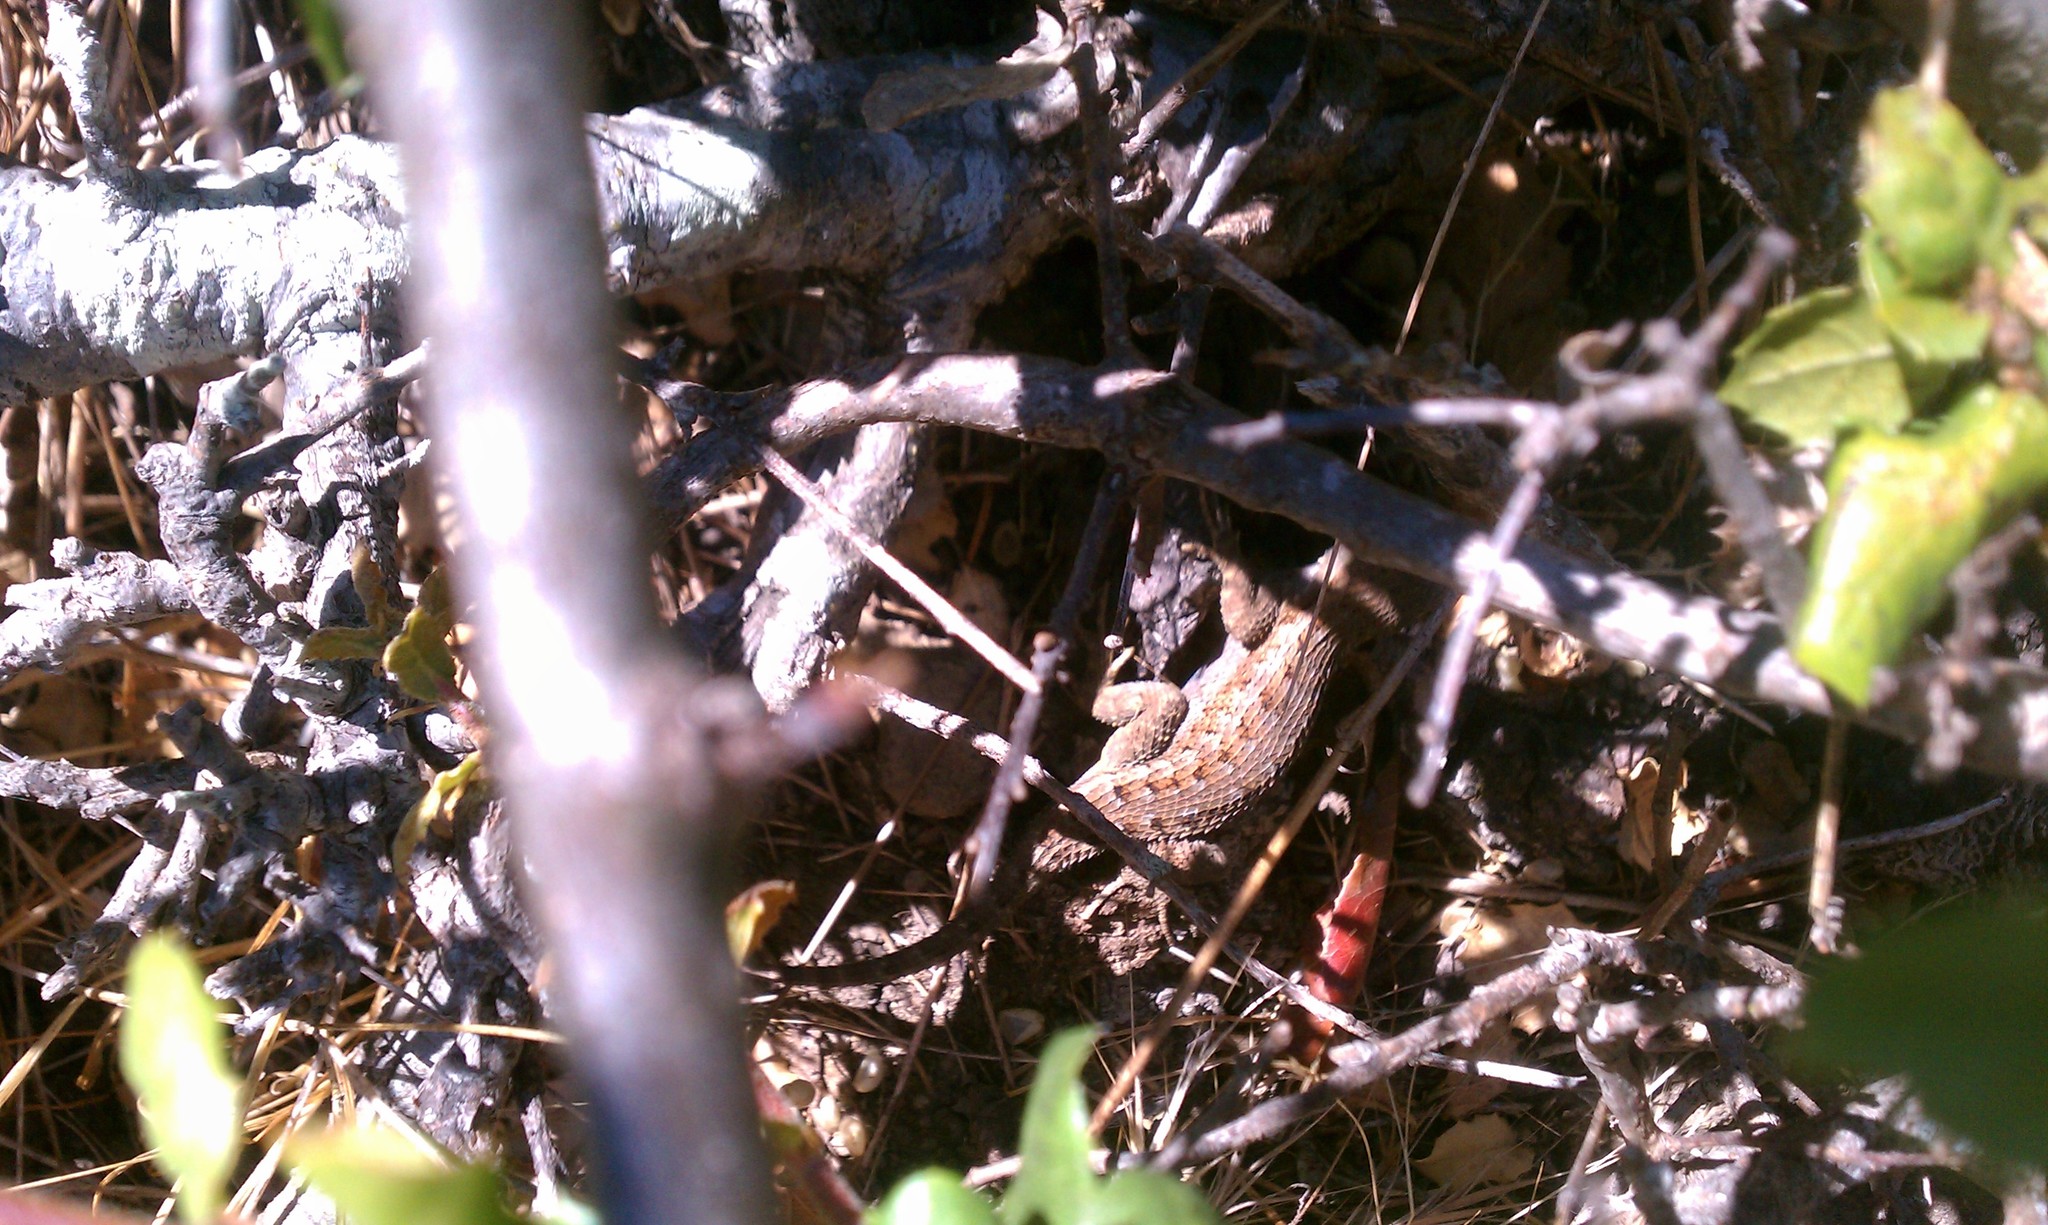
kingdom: Animalia
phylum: Chordata
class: Squamata
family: Phrynosomatidae
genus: Sceloporus
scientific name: Sceloporus occidentalis
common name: Western fence lizard
